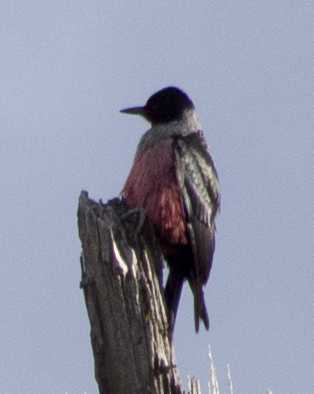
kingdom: Animalia
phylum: Chordata
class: Aves
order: Piciformes
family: Picidae
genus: Melanerpes
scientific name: Melanerpes lewis
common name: Lewis's woodpecker
